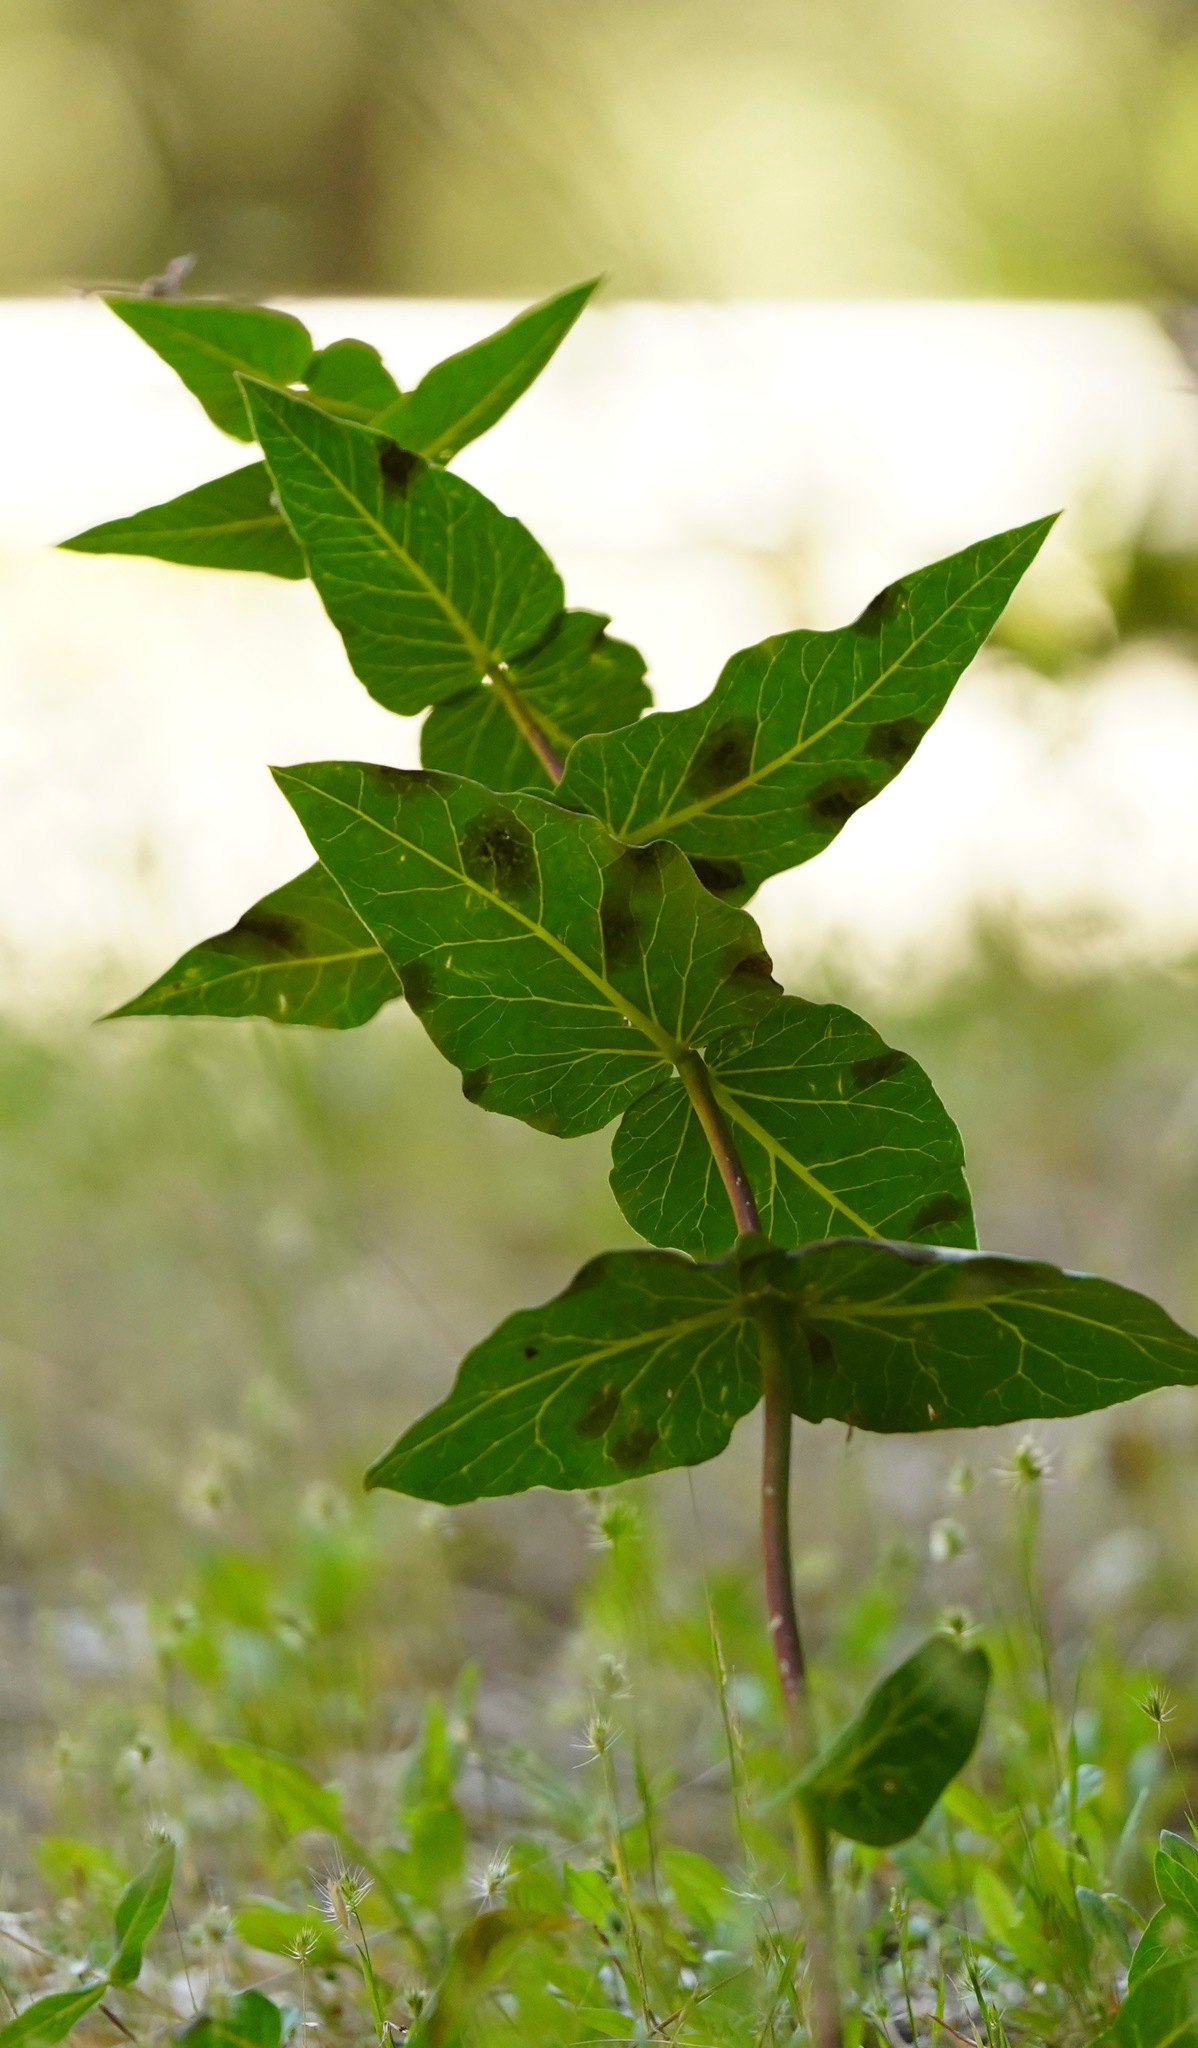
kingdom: Plantae
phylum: Tracheophyta
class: Magnoliopsida
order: Gentianales
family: Apocynaceae
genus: Asclepias
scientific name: Asclepias cordifolia
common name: Purple milkweed
